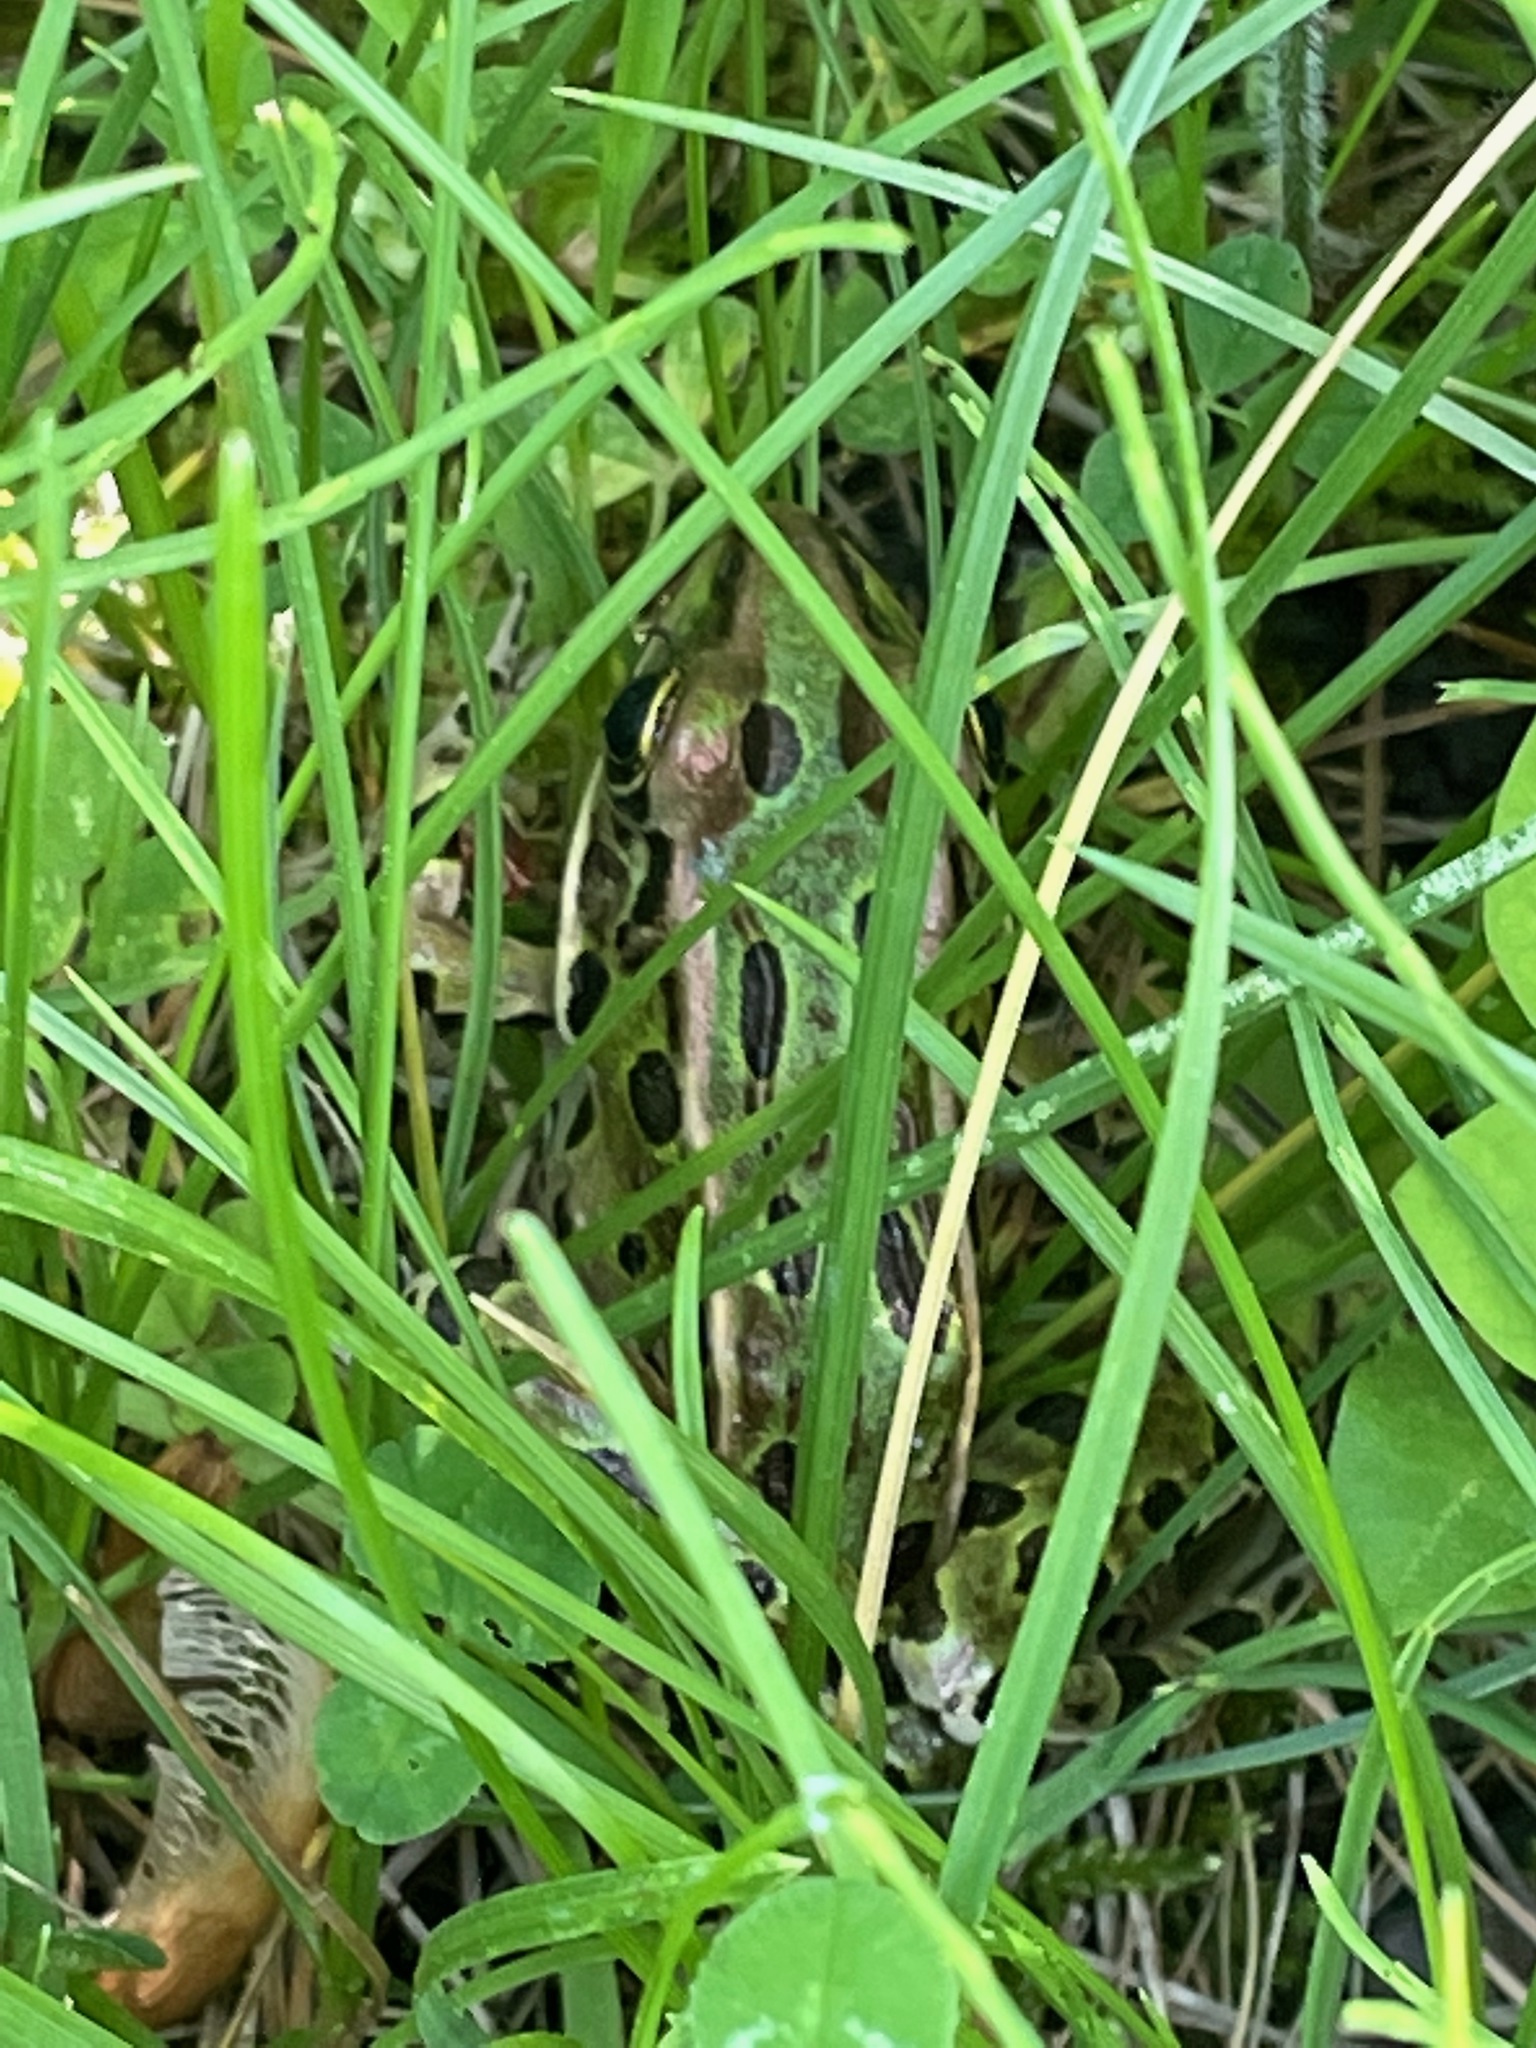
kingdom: Animalia
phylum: Chordata
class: Amphibia
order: Anura
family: Ranidae
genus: Lithobates
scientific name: Lithobates pipiens
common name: Northern leopard frog
